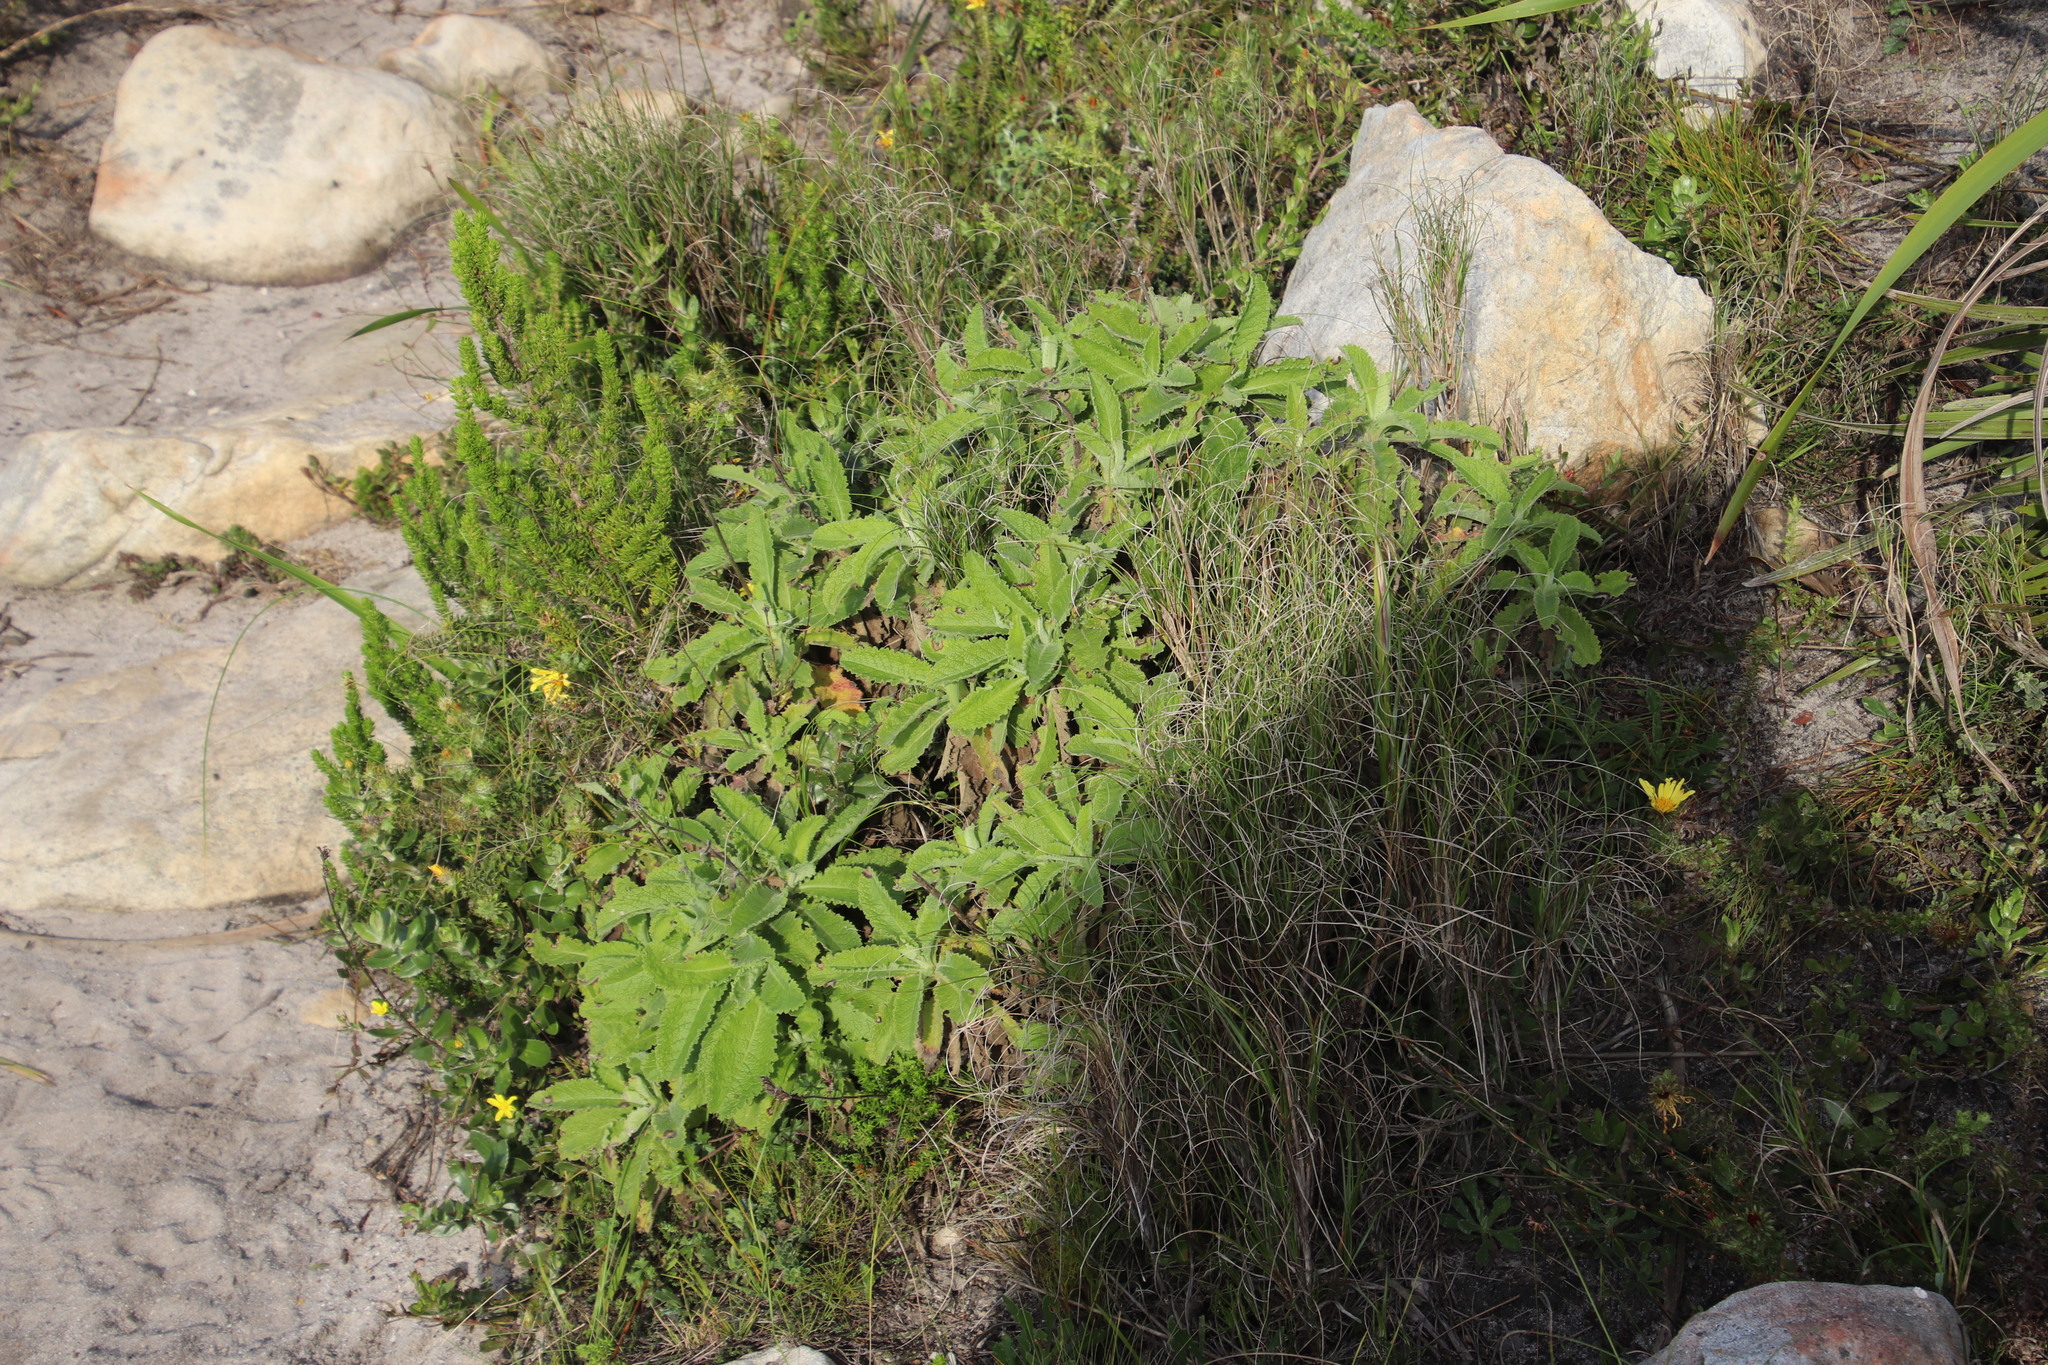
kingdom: Plantae
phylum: Tracheophyta
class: Magnoliopsida
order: Dipsacales
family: Caprifoliaceae
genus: Scabiosa
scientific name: Scabiosa africana
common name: Cape scabious
